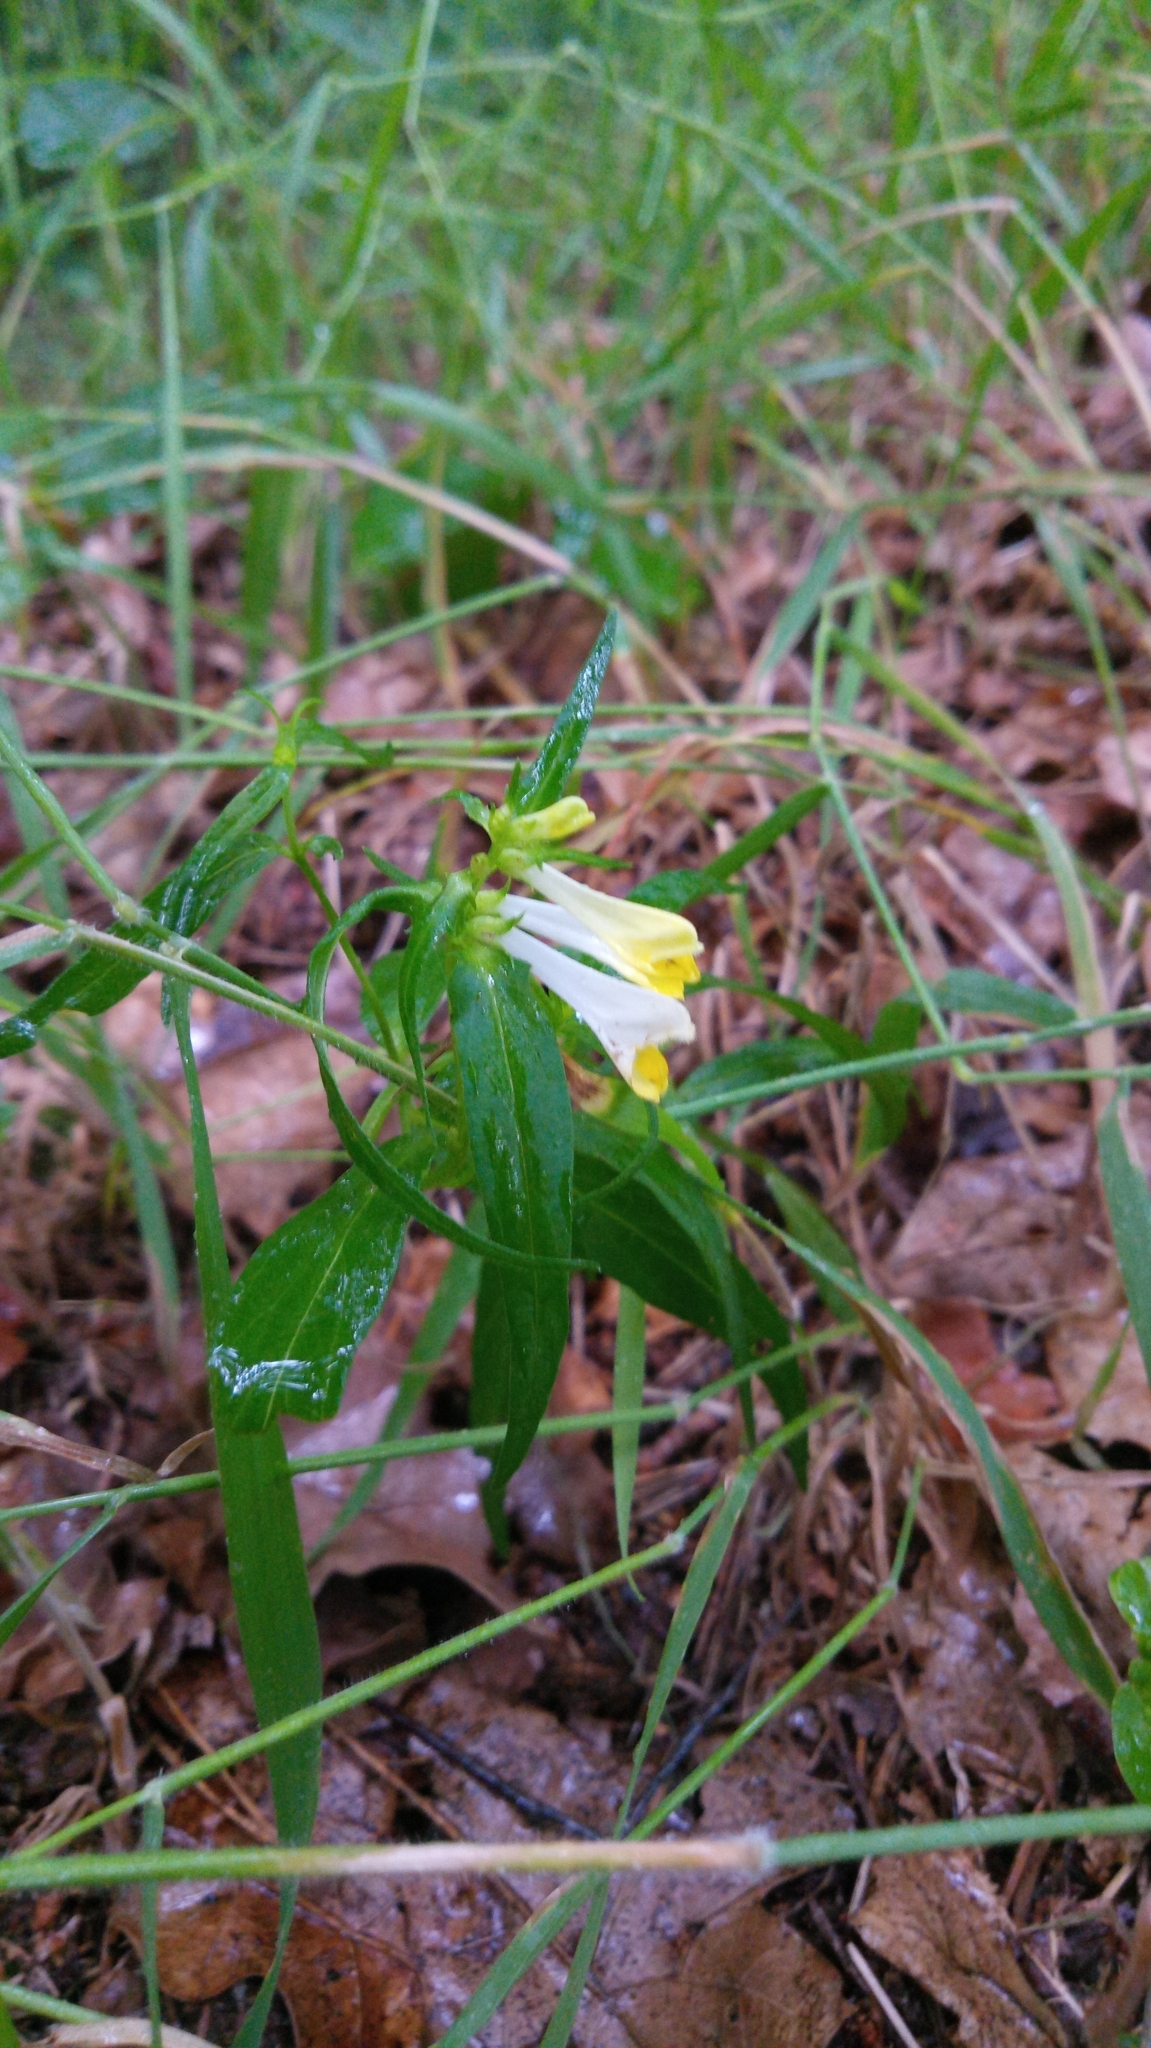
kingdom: Plantae
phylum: Tracheophyta
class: Magnoliopsida
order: Lamiales
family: Orobanchaceae
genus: Melampyrum
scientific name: Melampyrum pratense
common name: Common cow-wheat
